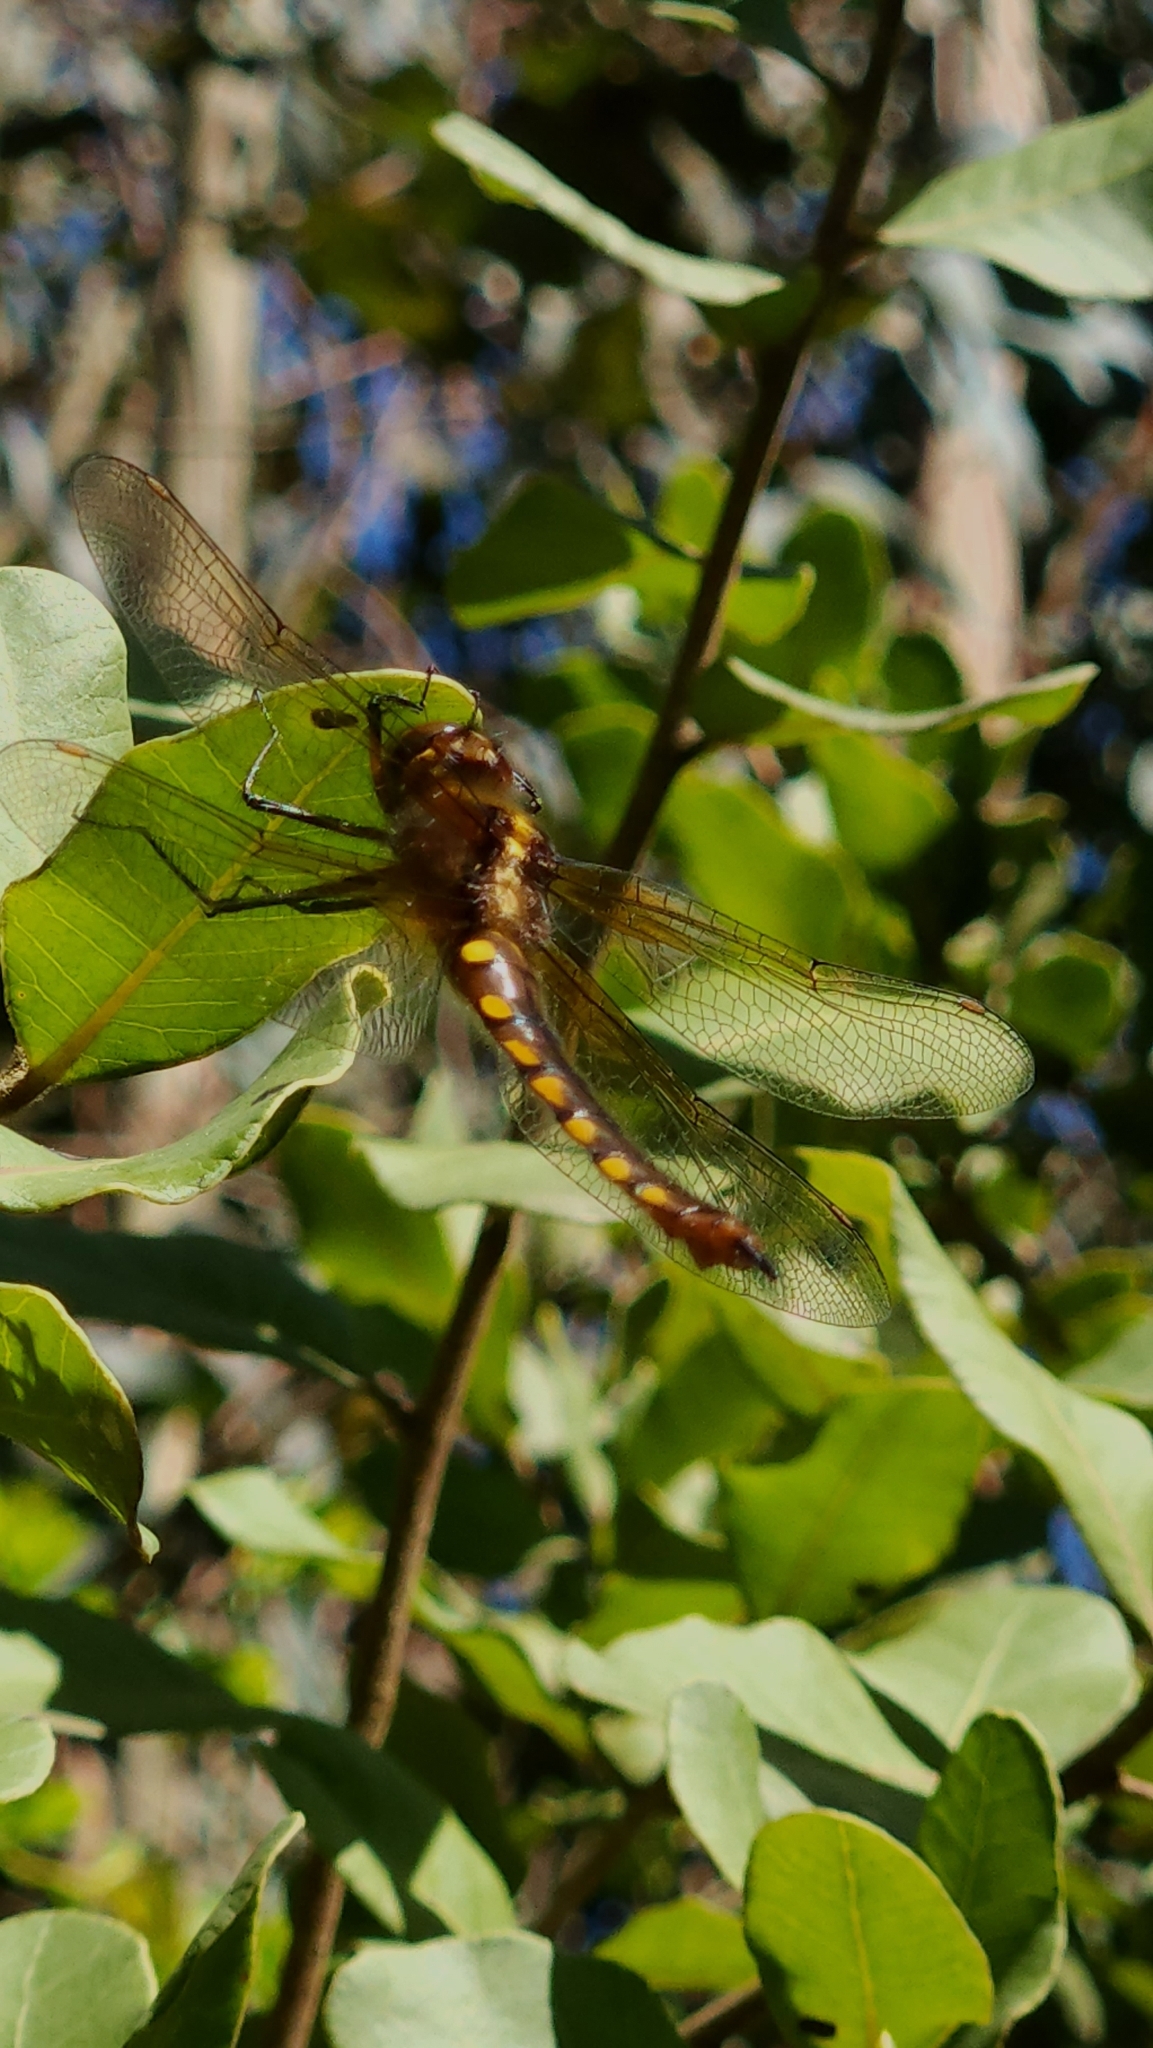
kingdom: Animalia
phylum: Arthropoda
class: Insecta
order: Odonata
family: Corduliidae
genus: Rialla
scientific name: Rialla villosa
